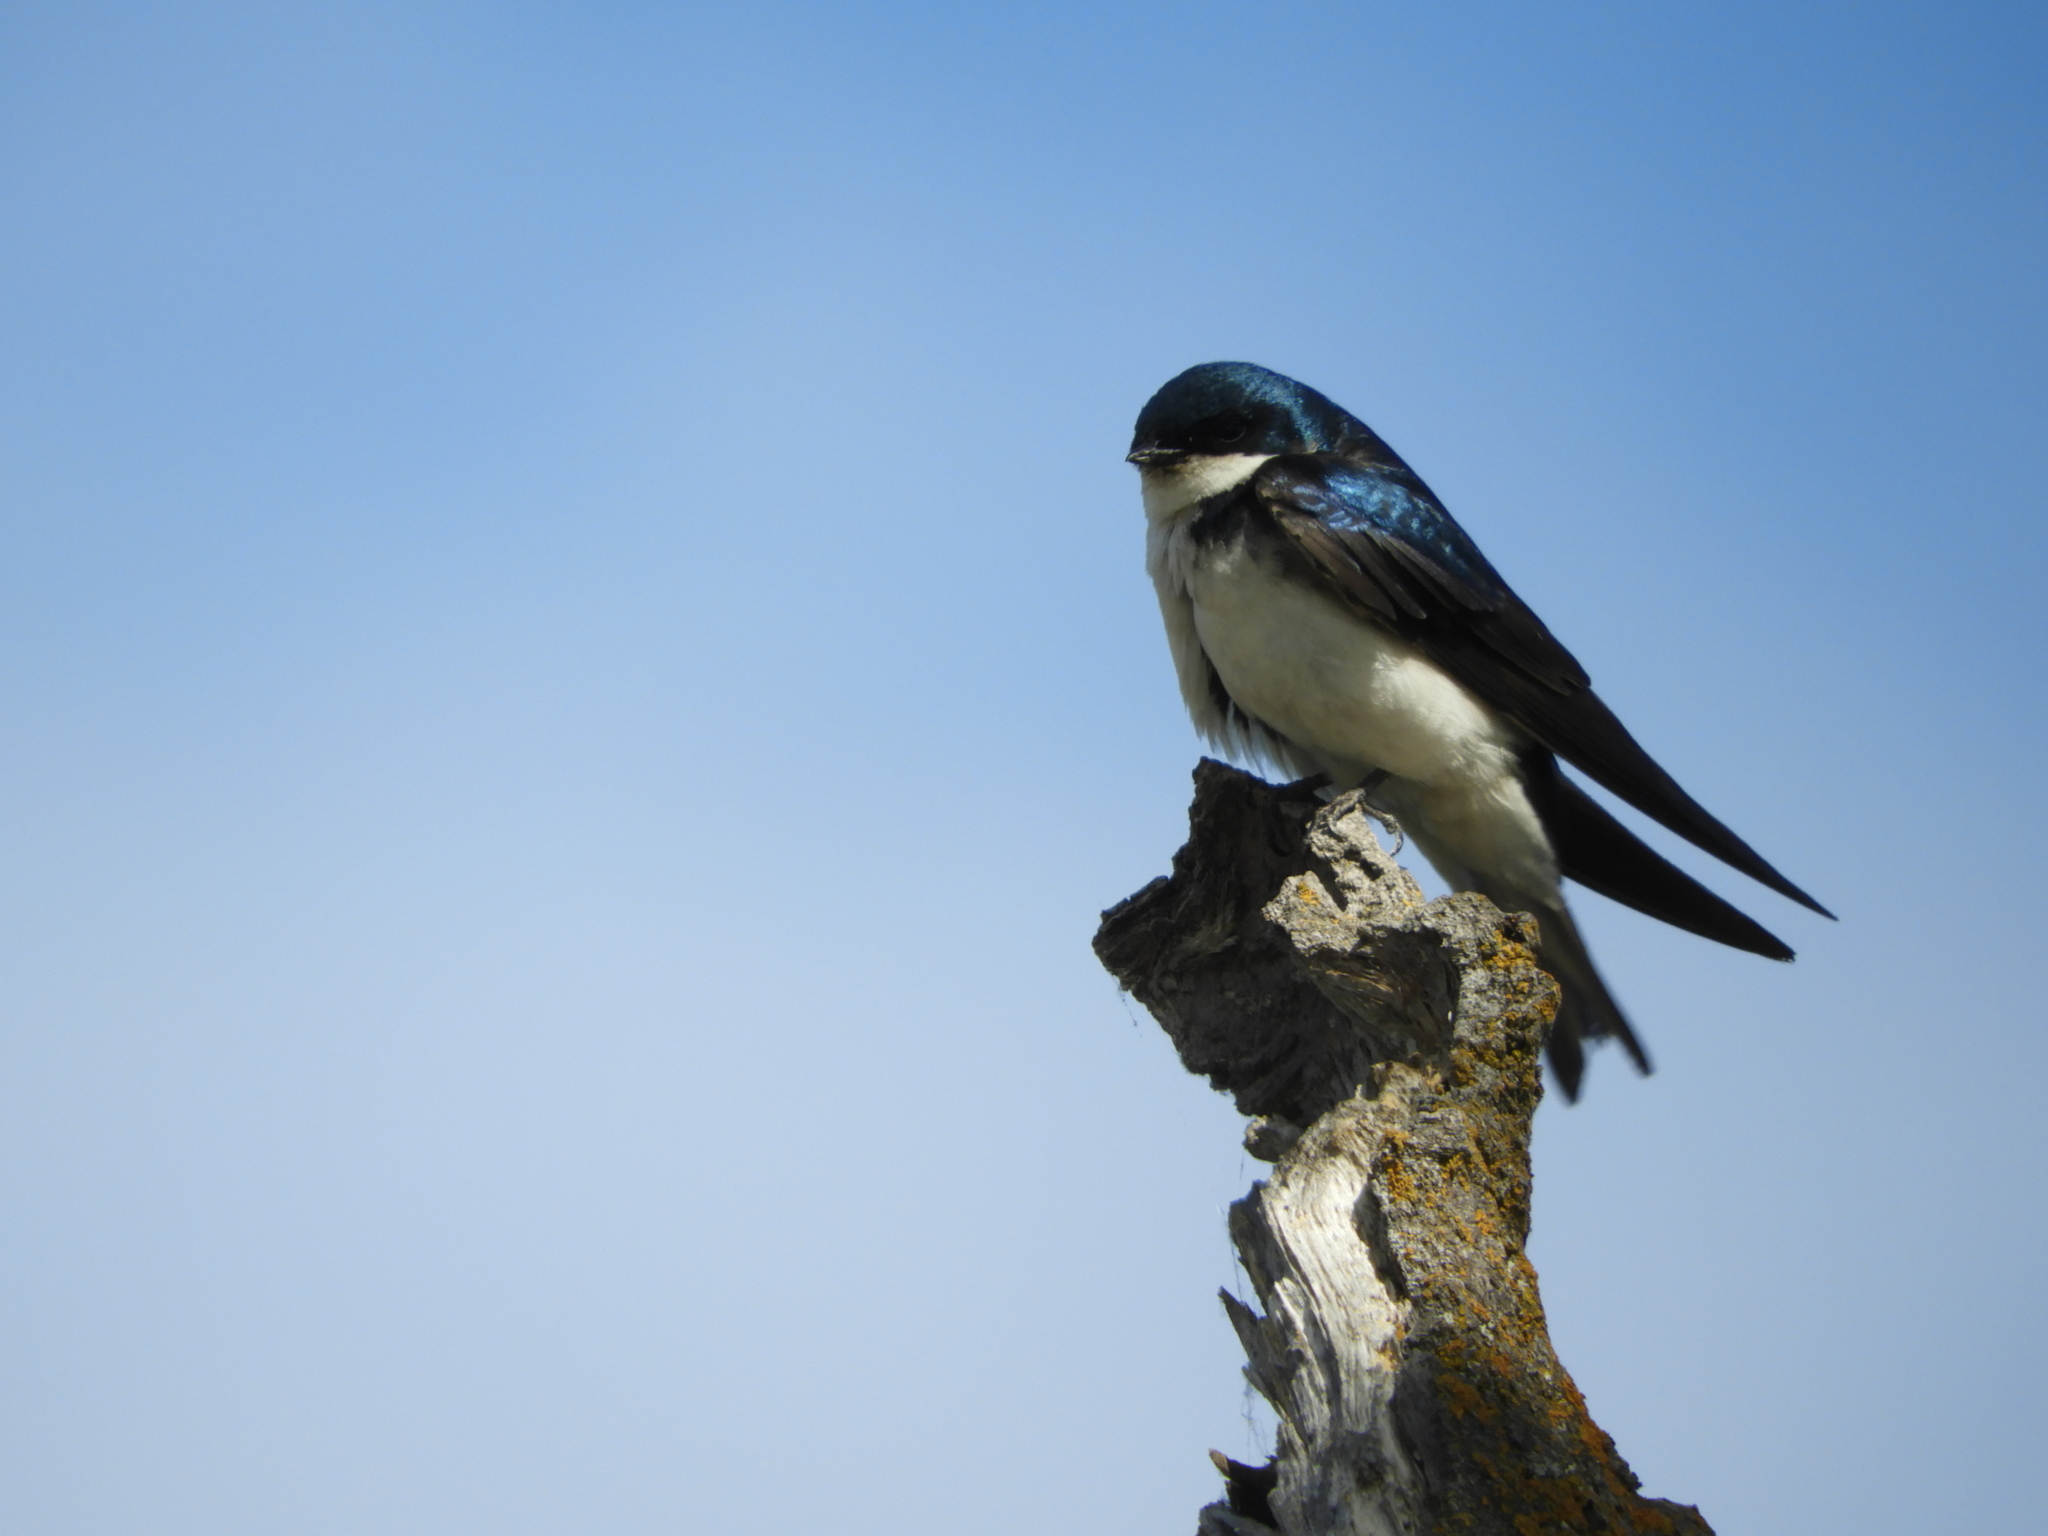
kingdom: Animalia
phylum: Chordata
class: Aves
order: Passeriformes
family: Hirundinidae
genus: Tachycineta
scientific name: Tachycineta bicolor
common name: Tree swallow
